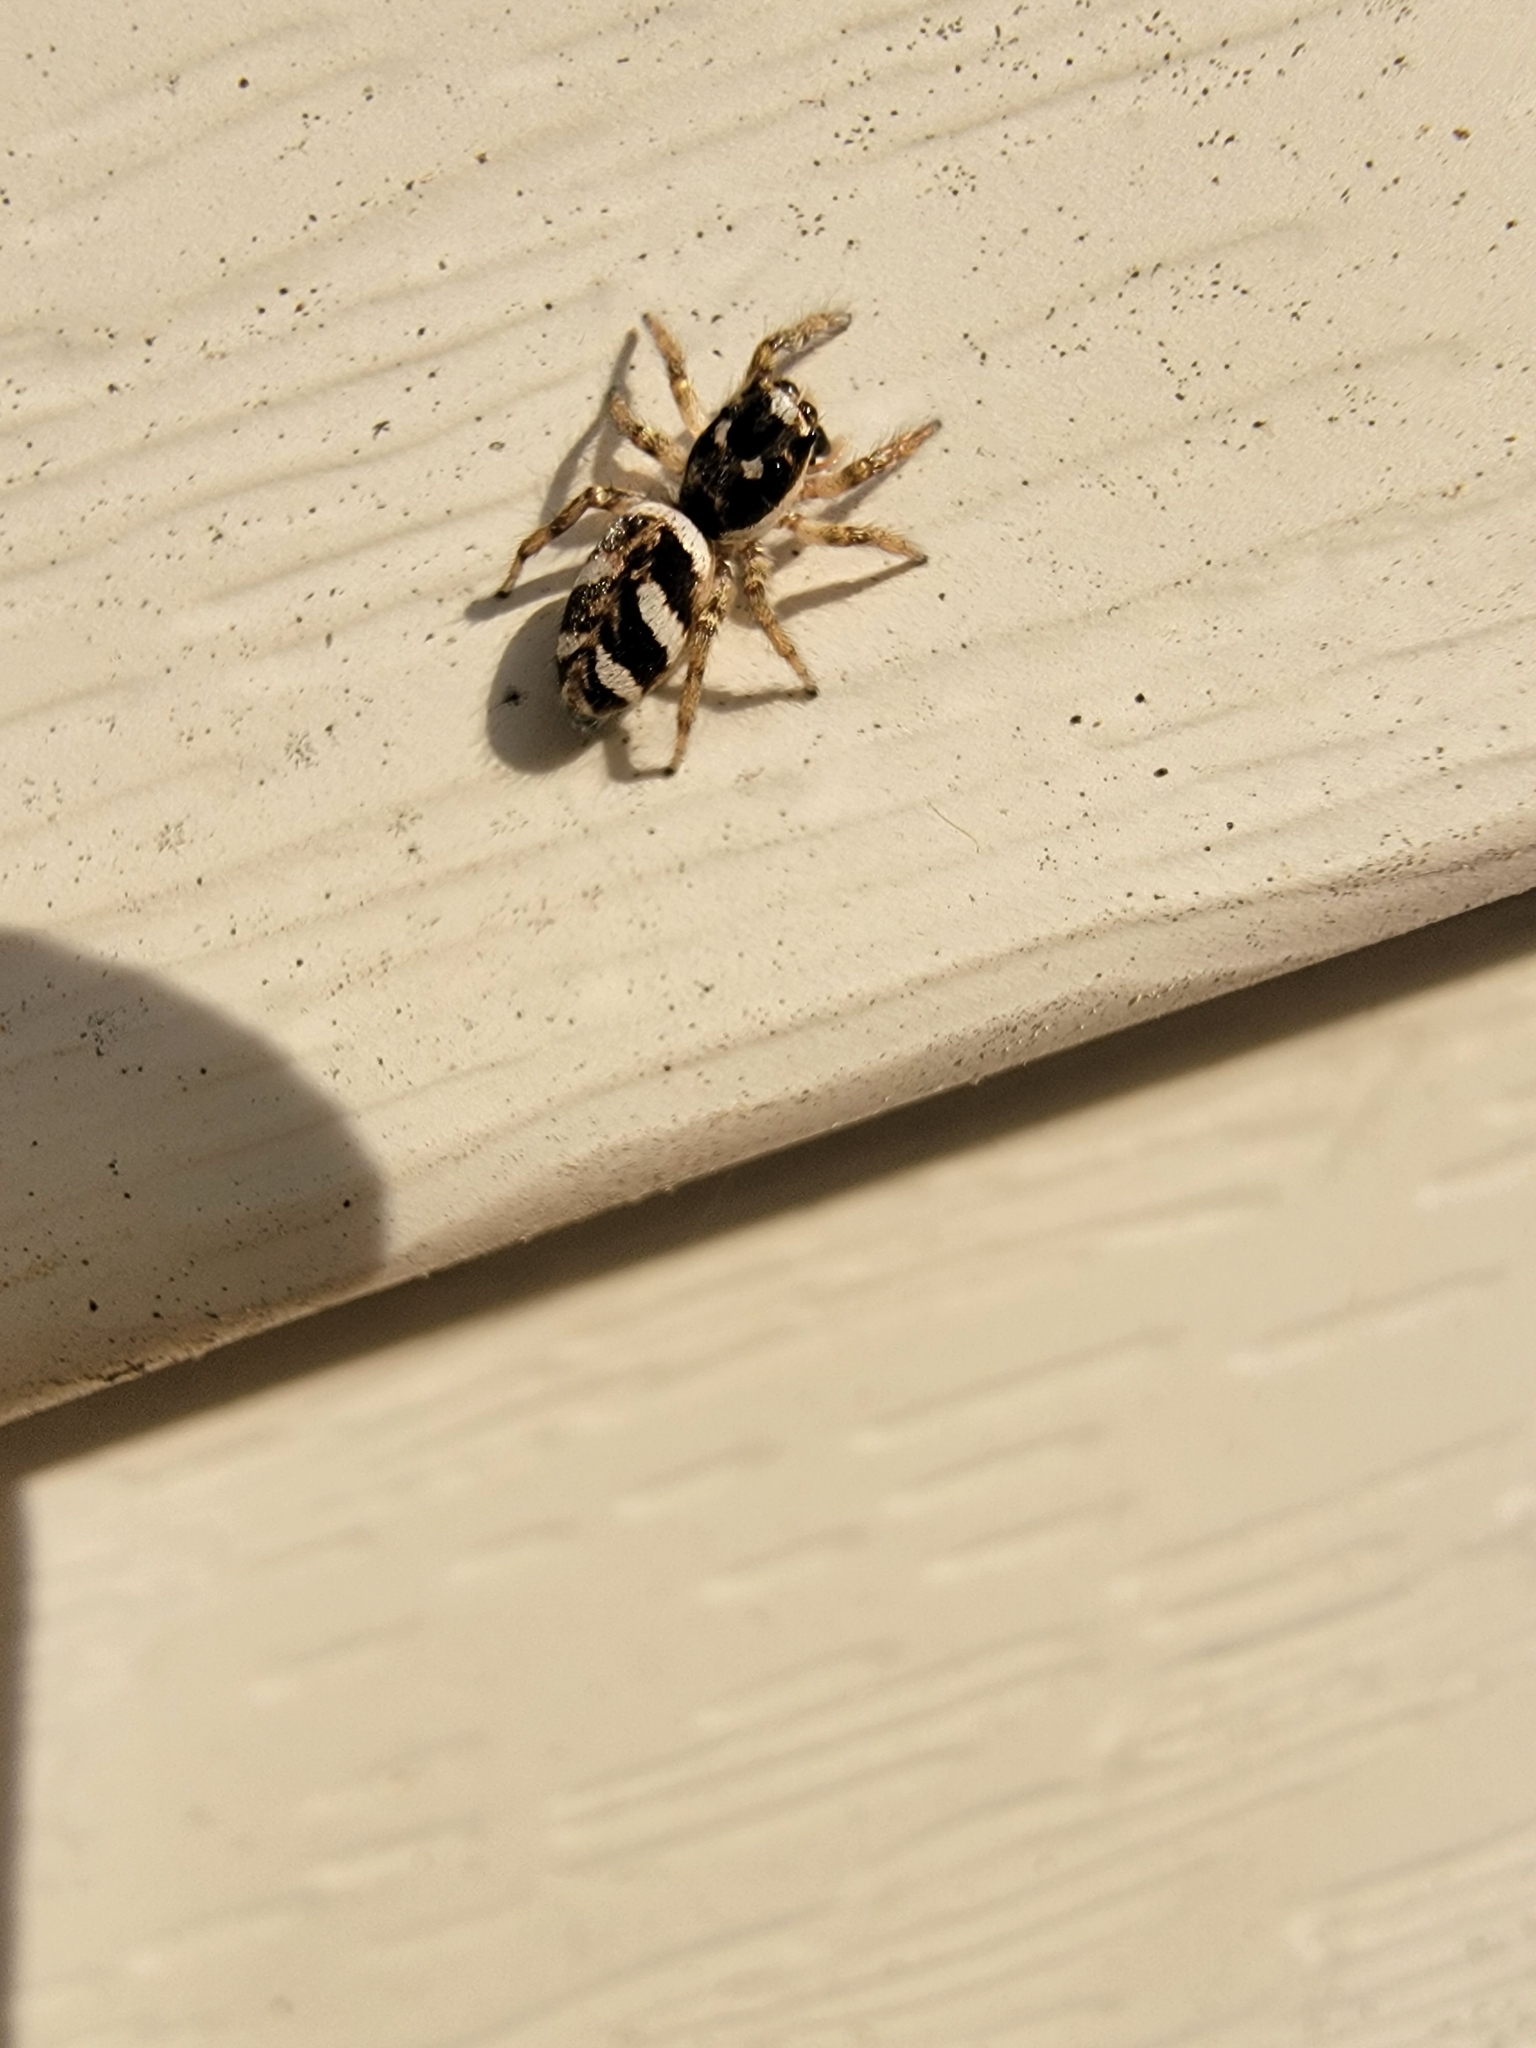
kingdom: Animalia
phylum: Arthropoda
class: Arachnida
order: Araneae
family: Salticidae
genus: Salticus
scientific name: Salticus scenicus
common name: Zebra jumper
